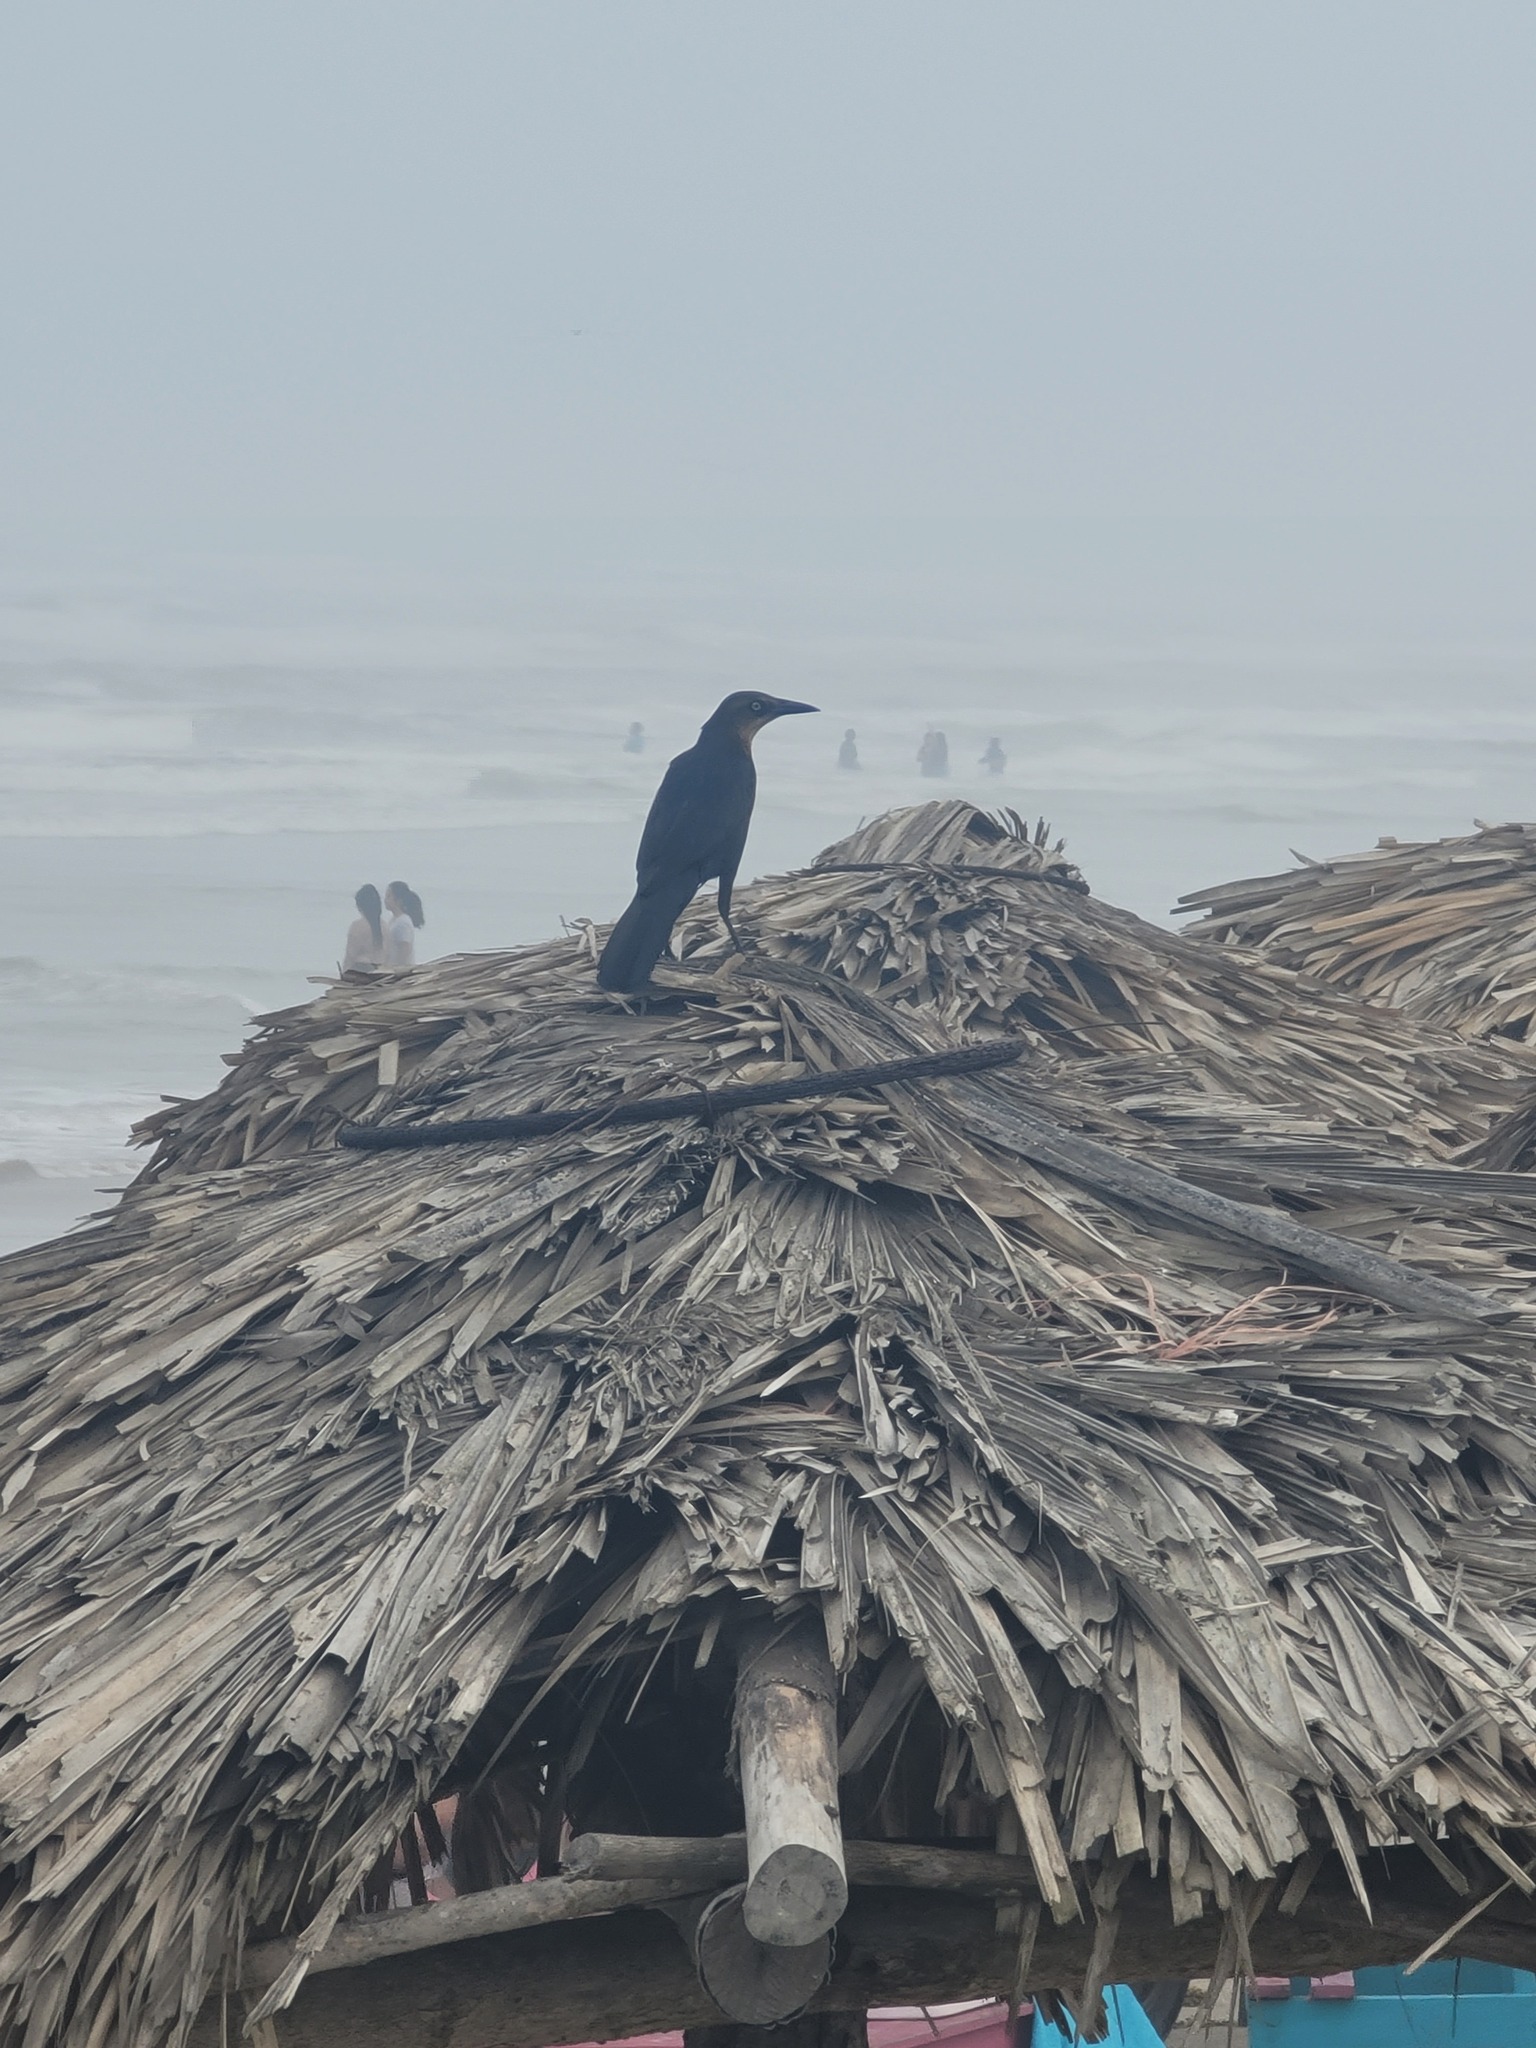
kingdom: Animalia
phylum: Chordata
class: Aves
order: Passeriformes
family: Icteridae
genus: Quiscalus
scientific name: Quiscalus mexicanus
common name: Great-tailed grackle
